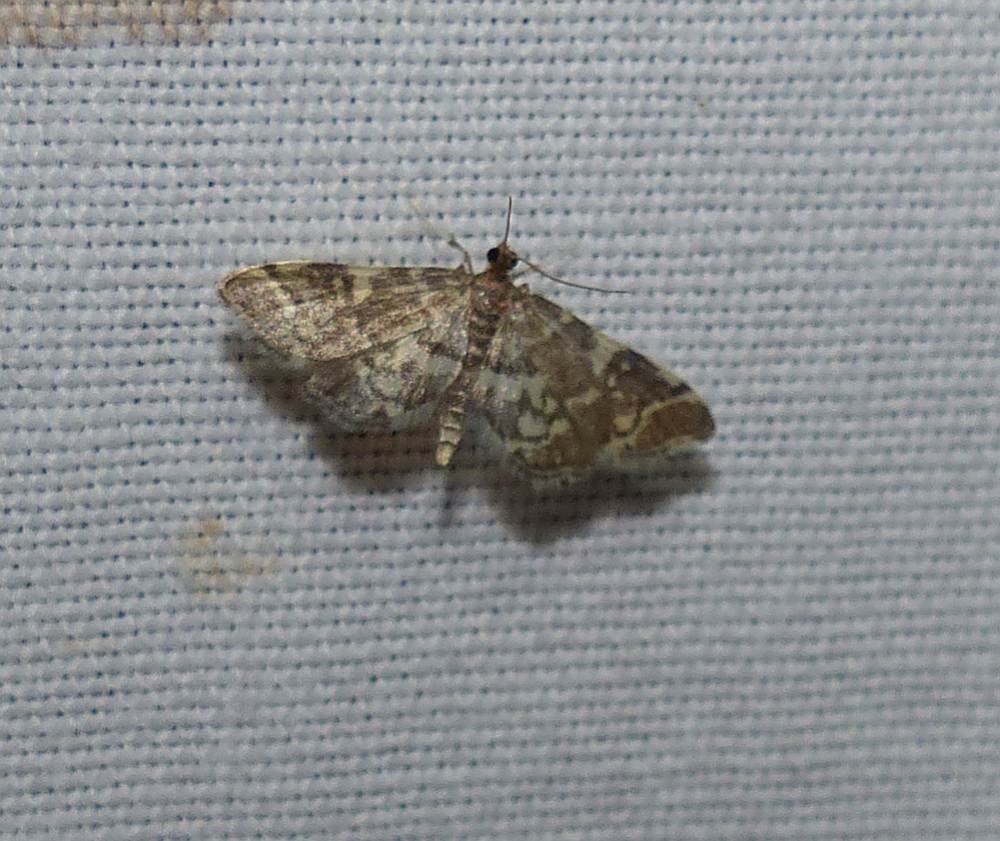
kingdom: Animalia
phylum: Arthropoda
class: Insecta
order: Lepidoptera
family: Crambidae
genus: Anageshna
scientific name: Anageshna primordialis
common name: Yellow-spotted webworm moth
